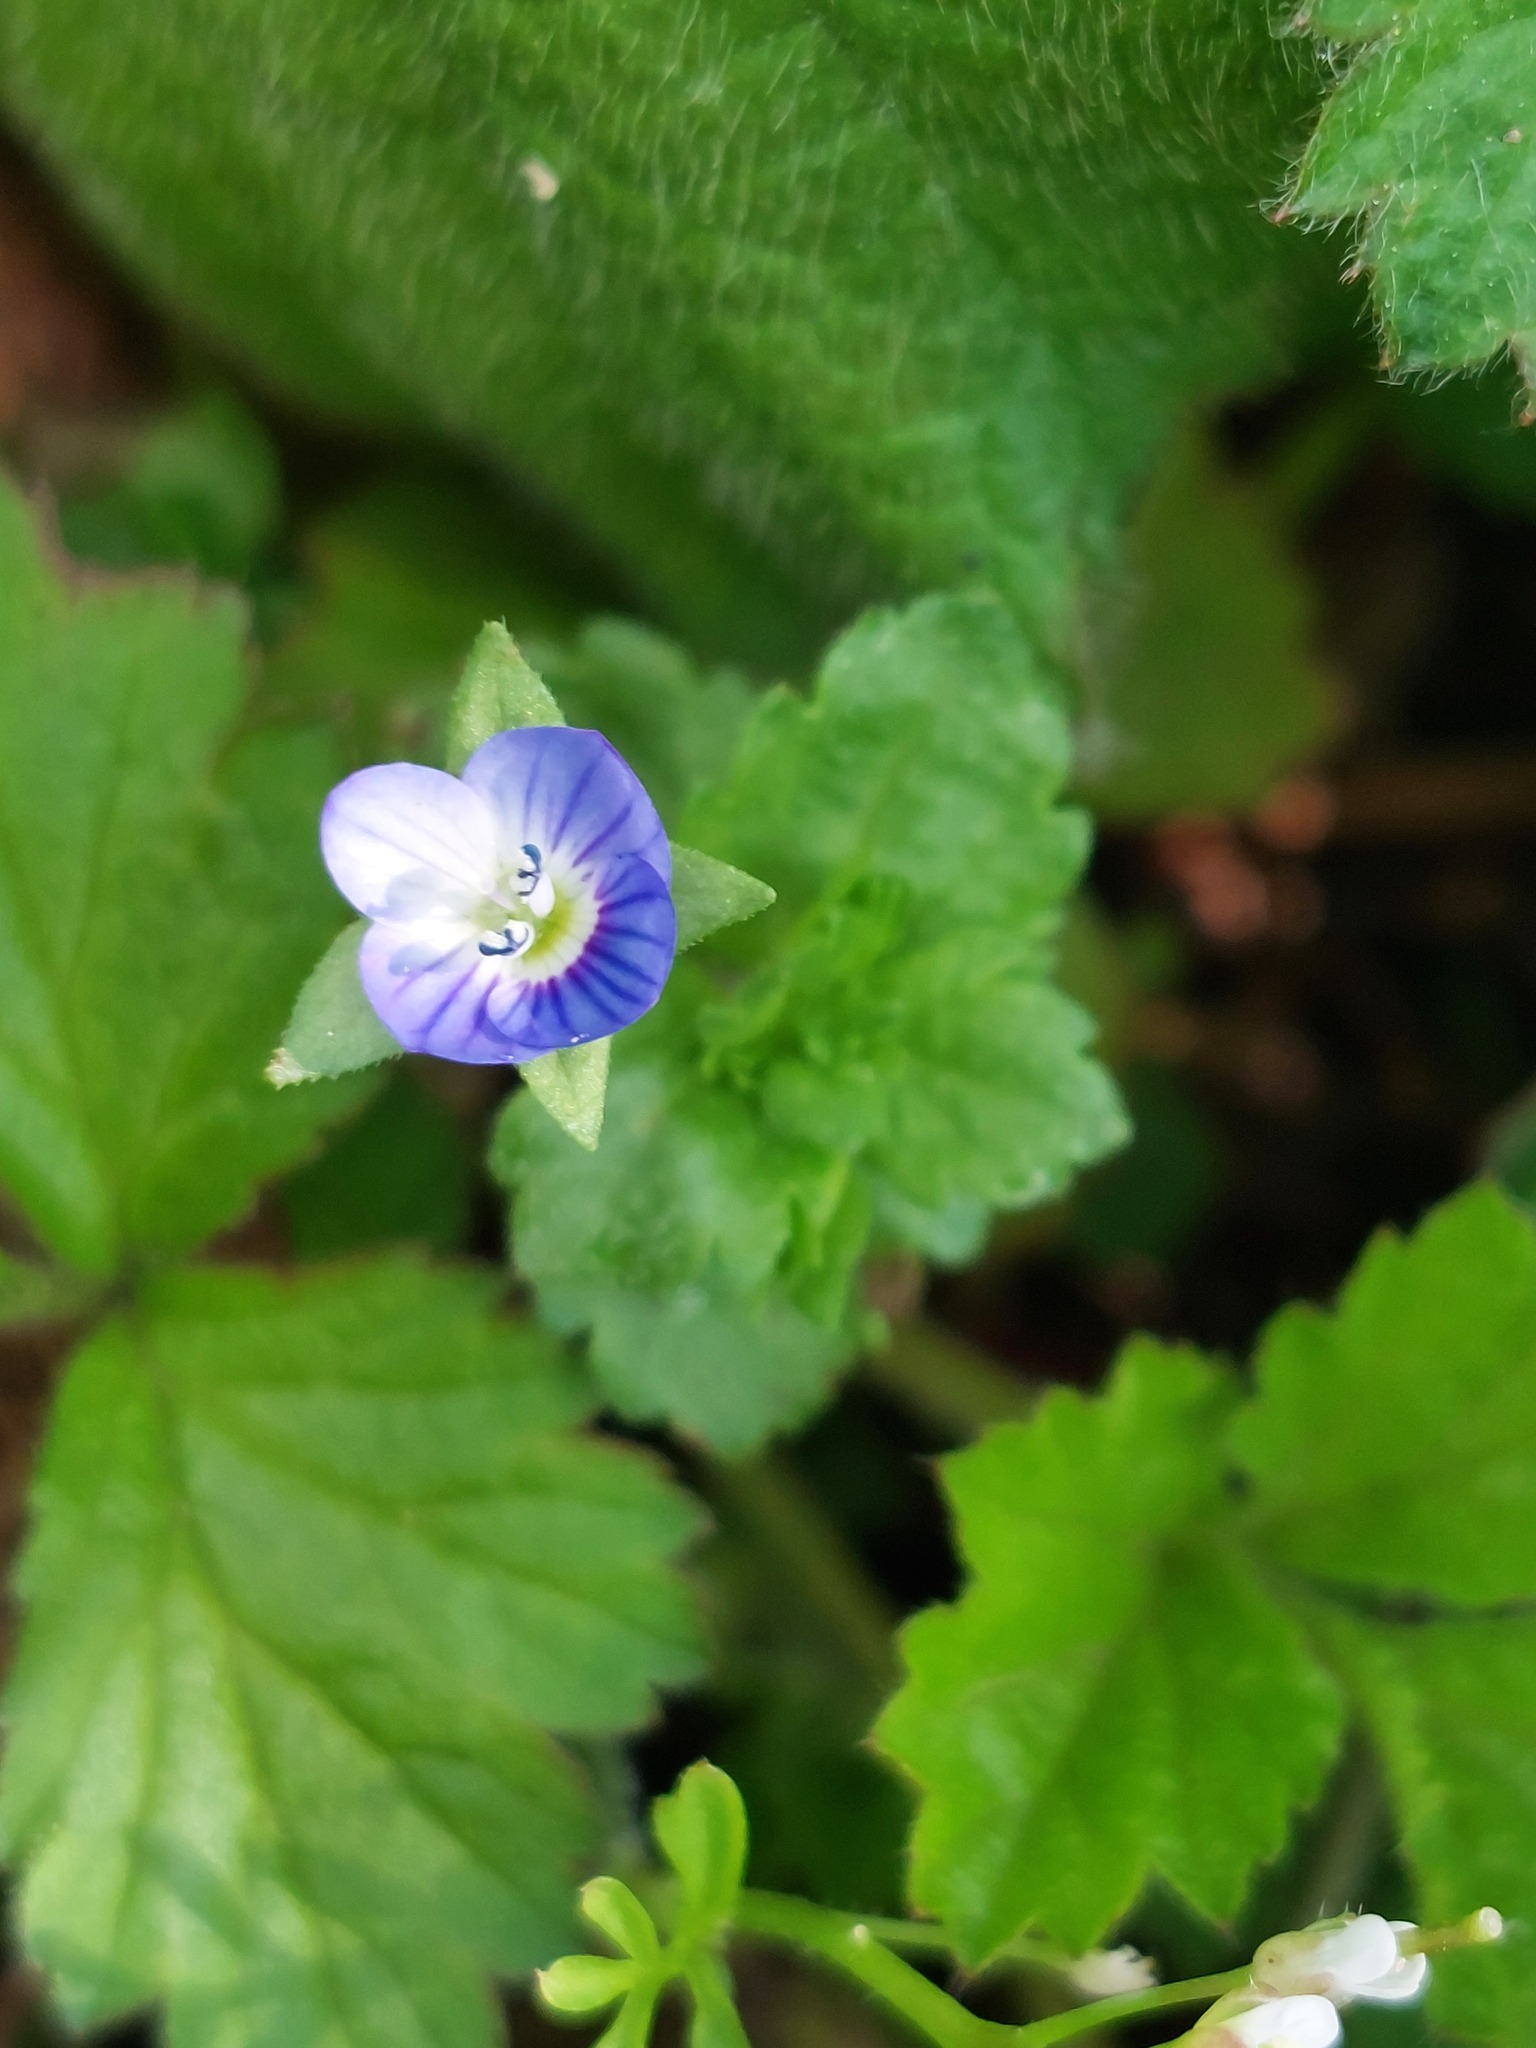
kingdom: Plantae
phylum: Tracheophyta
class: Magnoliopsida
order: Lamiales
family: Plantaginaceae
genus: Veronica
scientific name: Veronica persica
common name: Common field-speedwell
